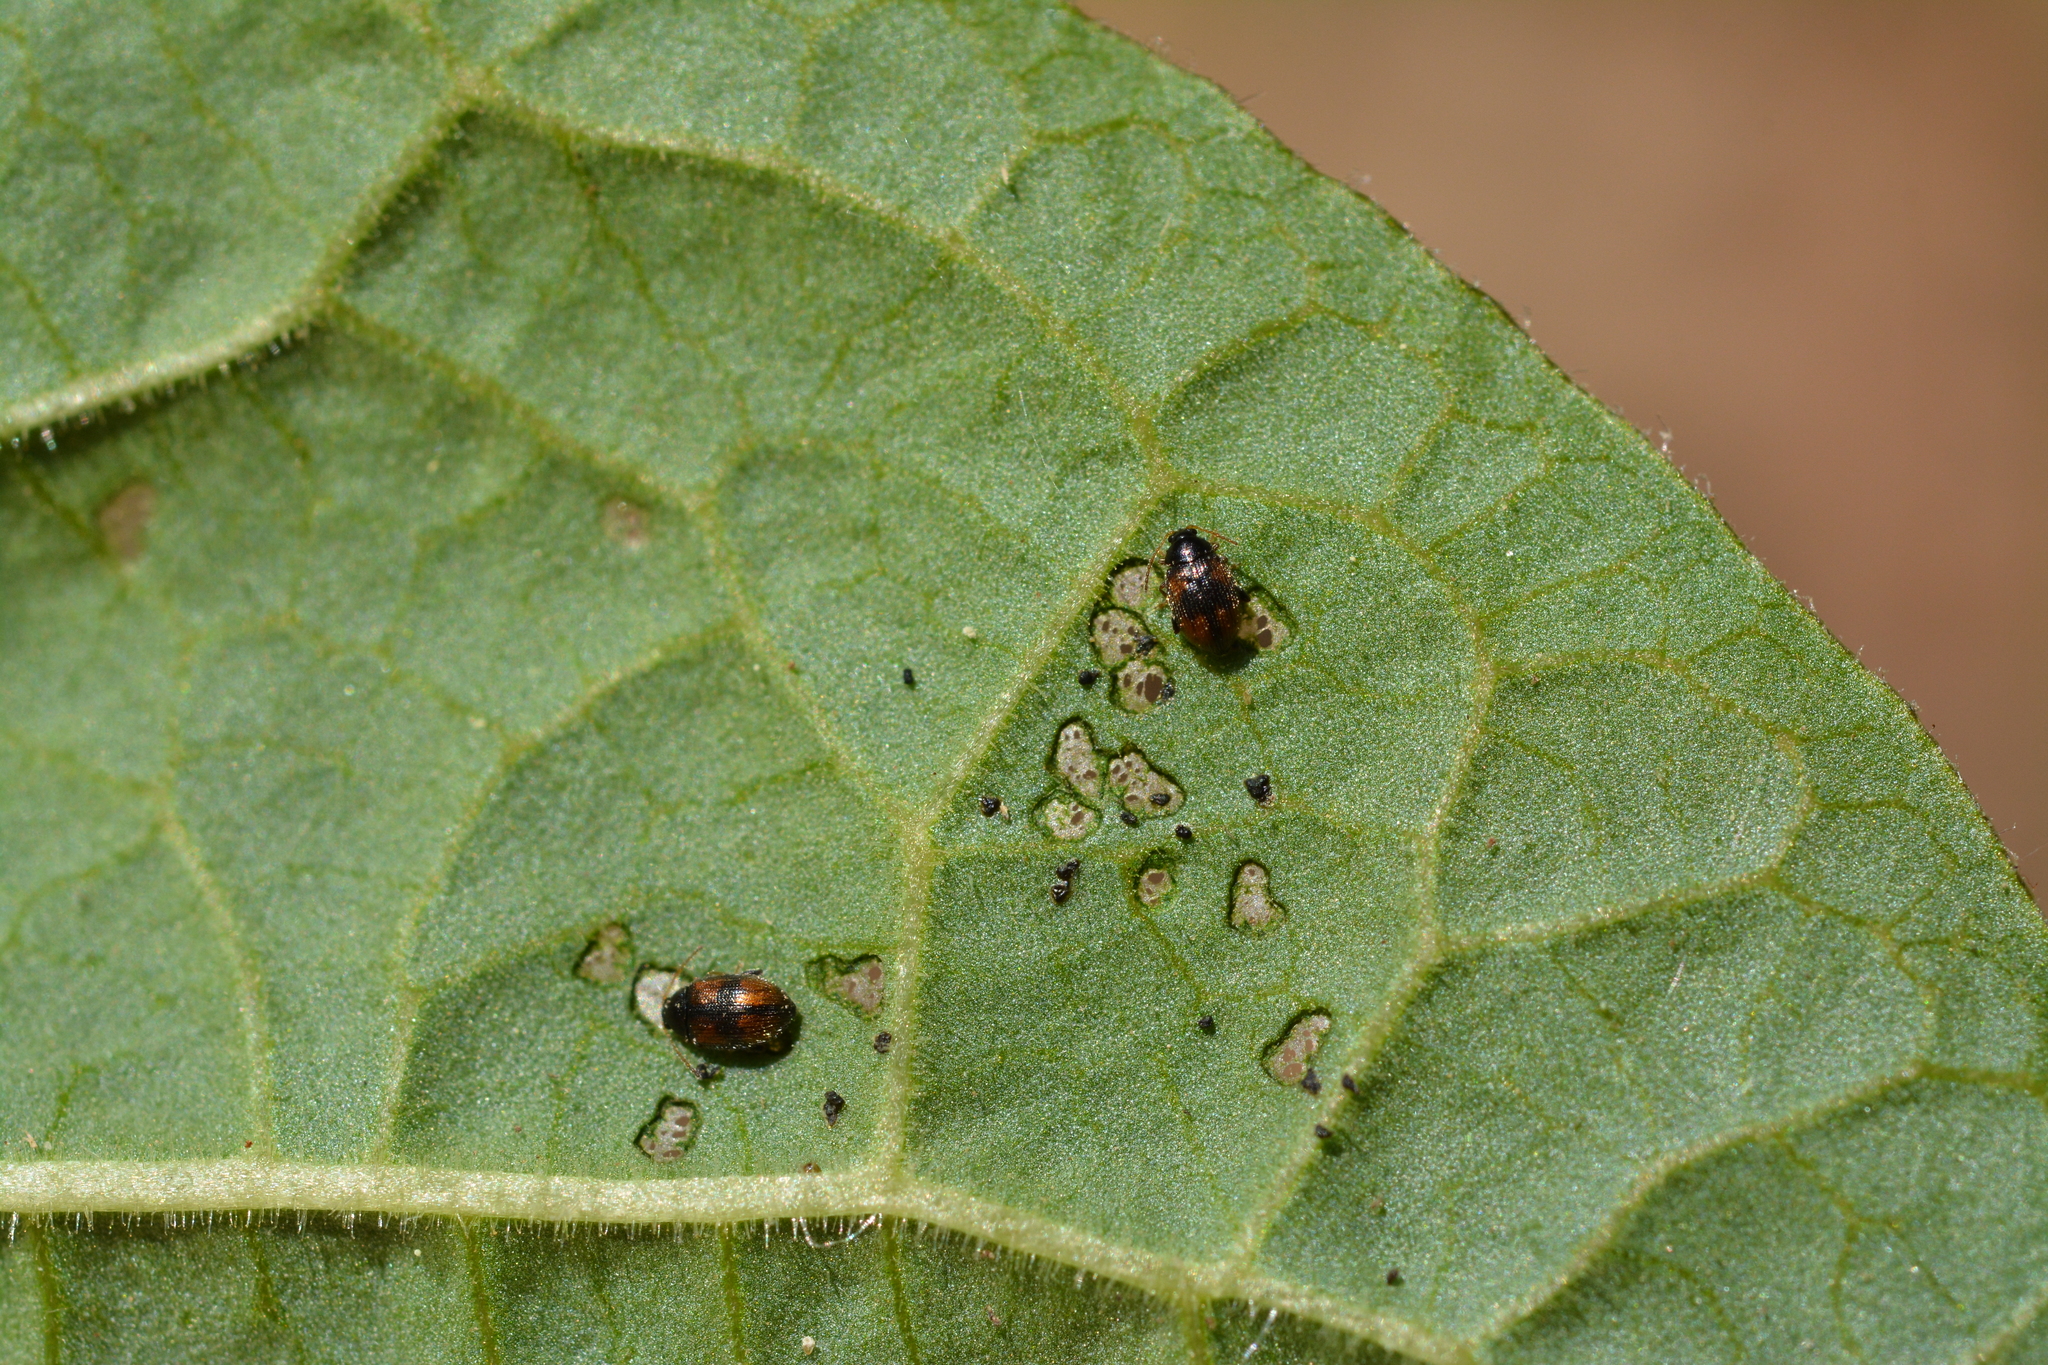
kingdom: Animalia
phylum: Arthropoda
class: Insecta
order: Coleoptera
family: Chrysomelidae
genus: Epitrix
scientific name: Epitrix atropae
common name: Belladonna flea beetle
